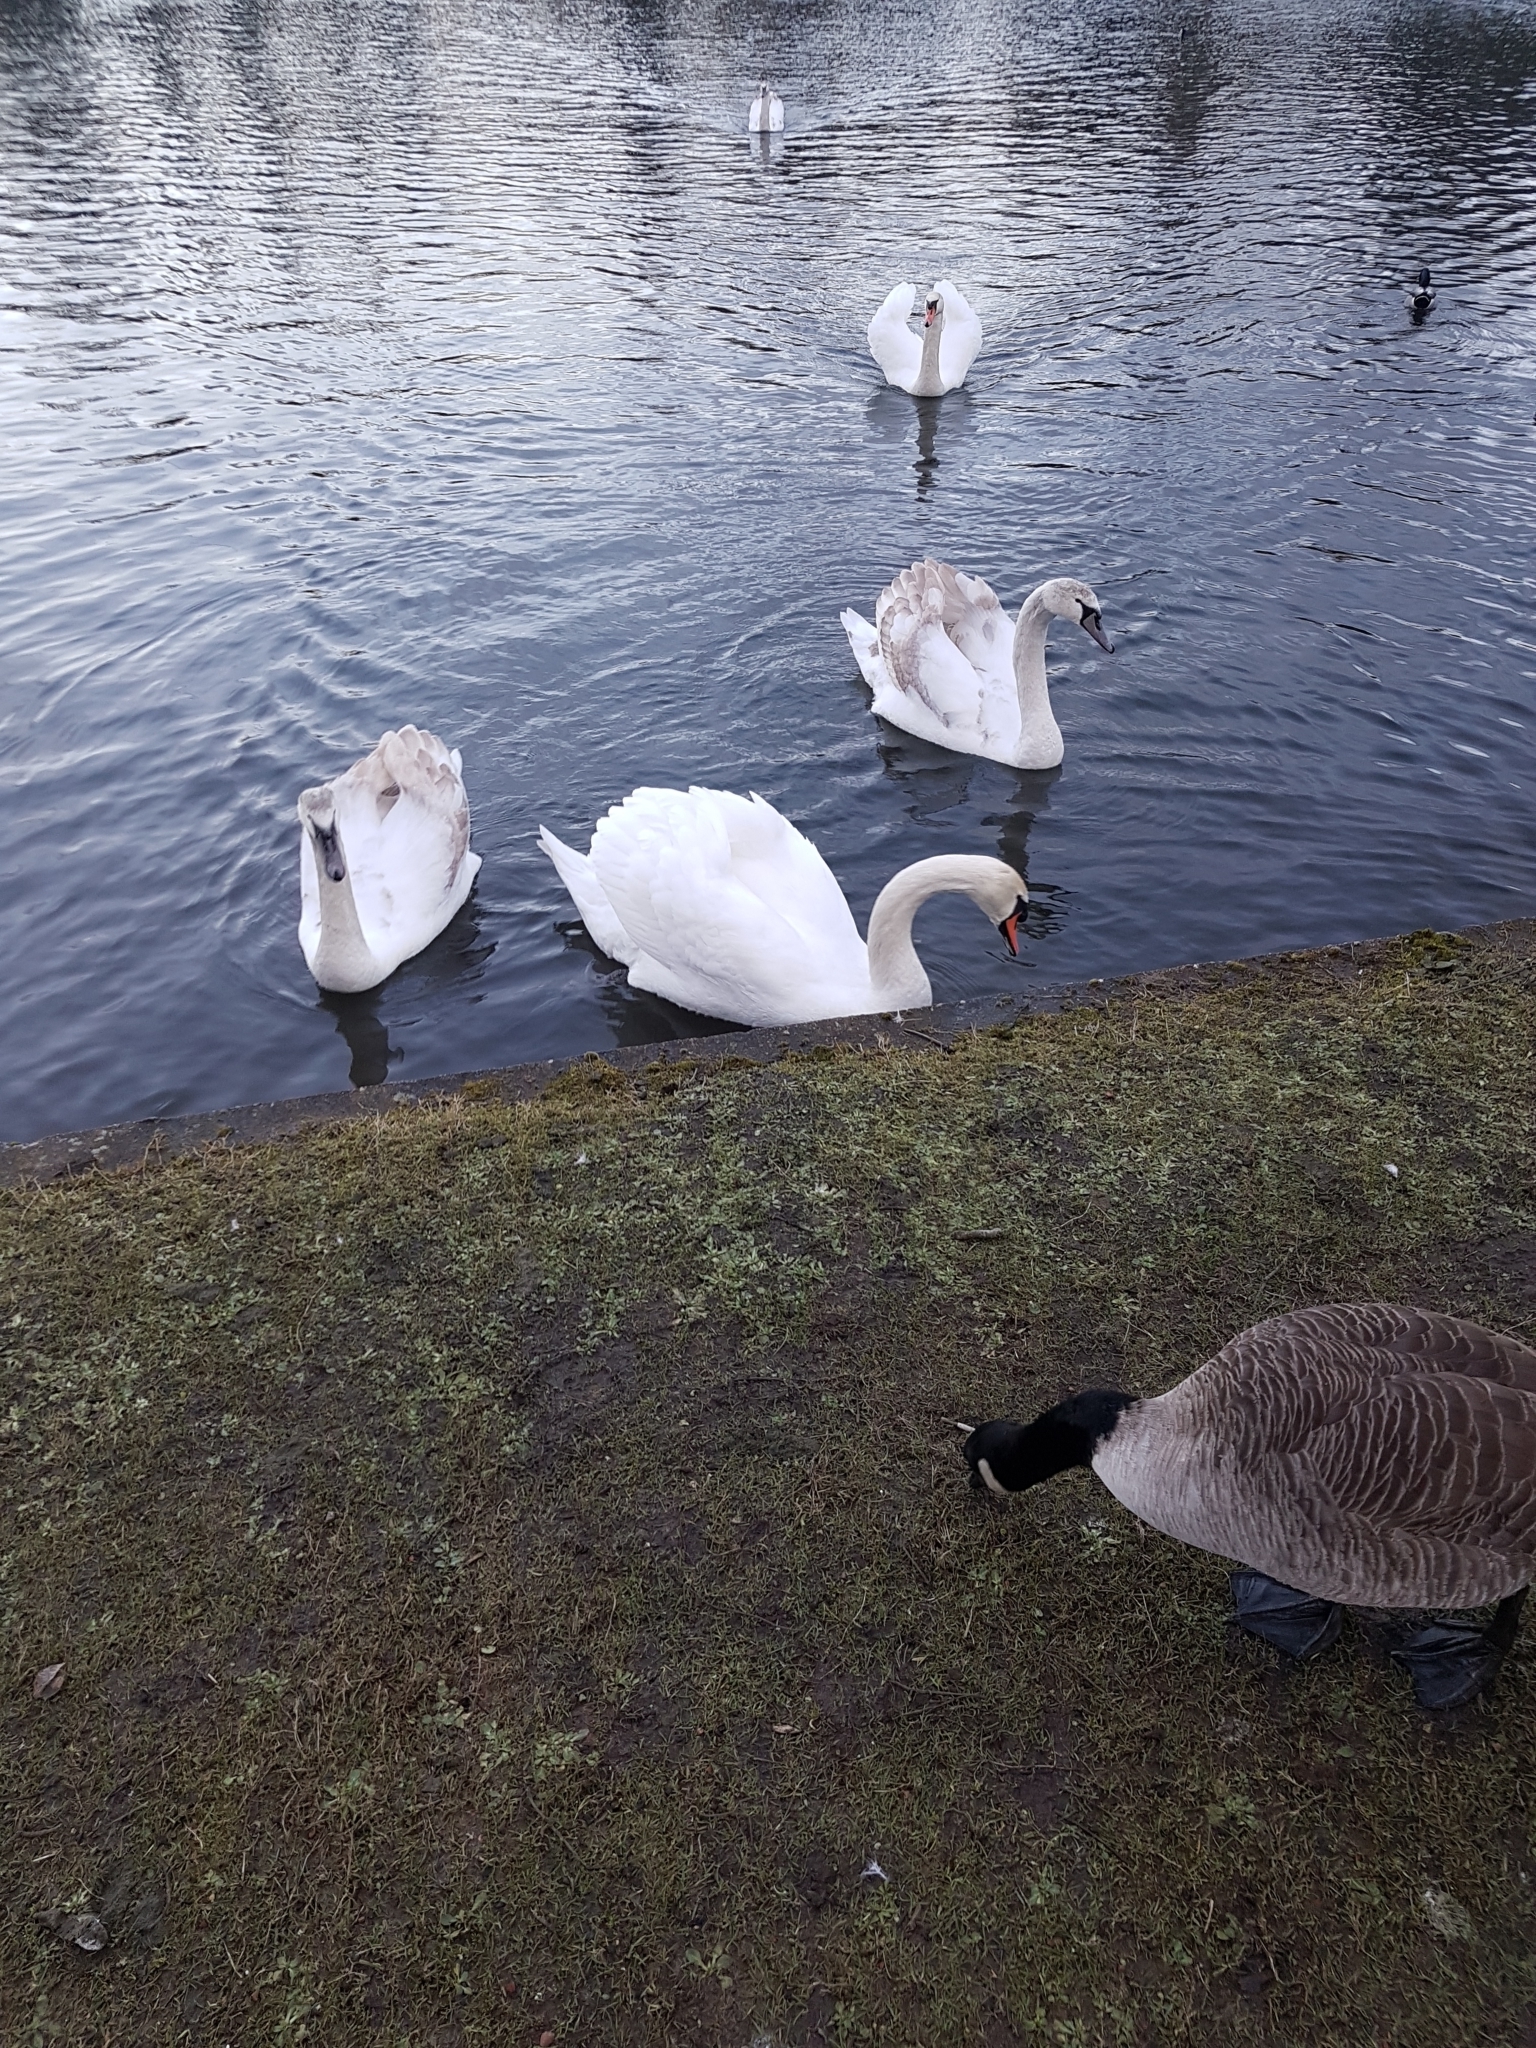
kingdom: Animalia
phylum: Chordata
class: Aves
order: Anseriformes
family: Anatidae
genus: Cygnus
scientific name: Cygnus olor
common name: Mute swan
